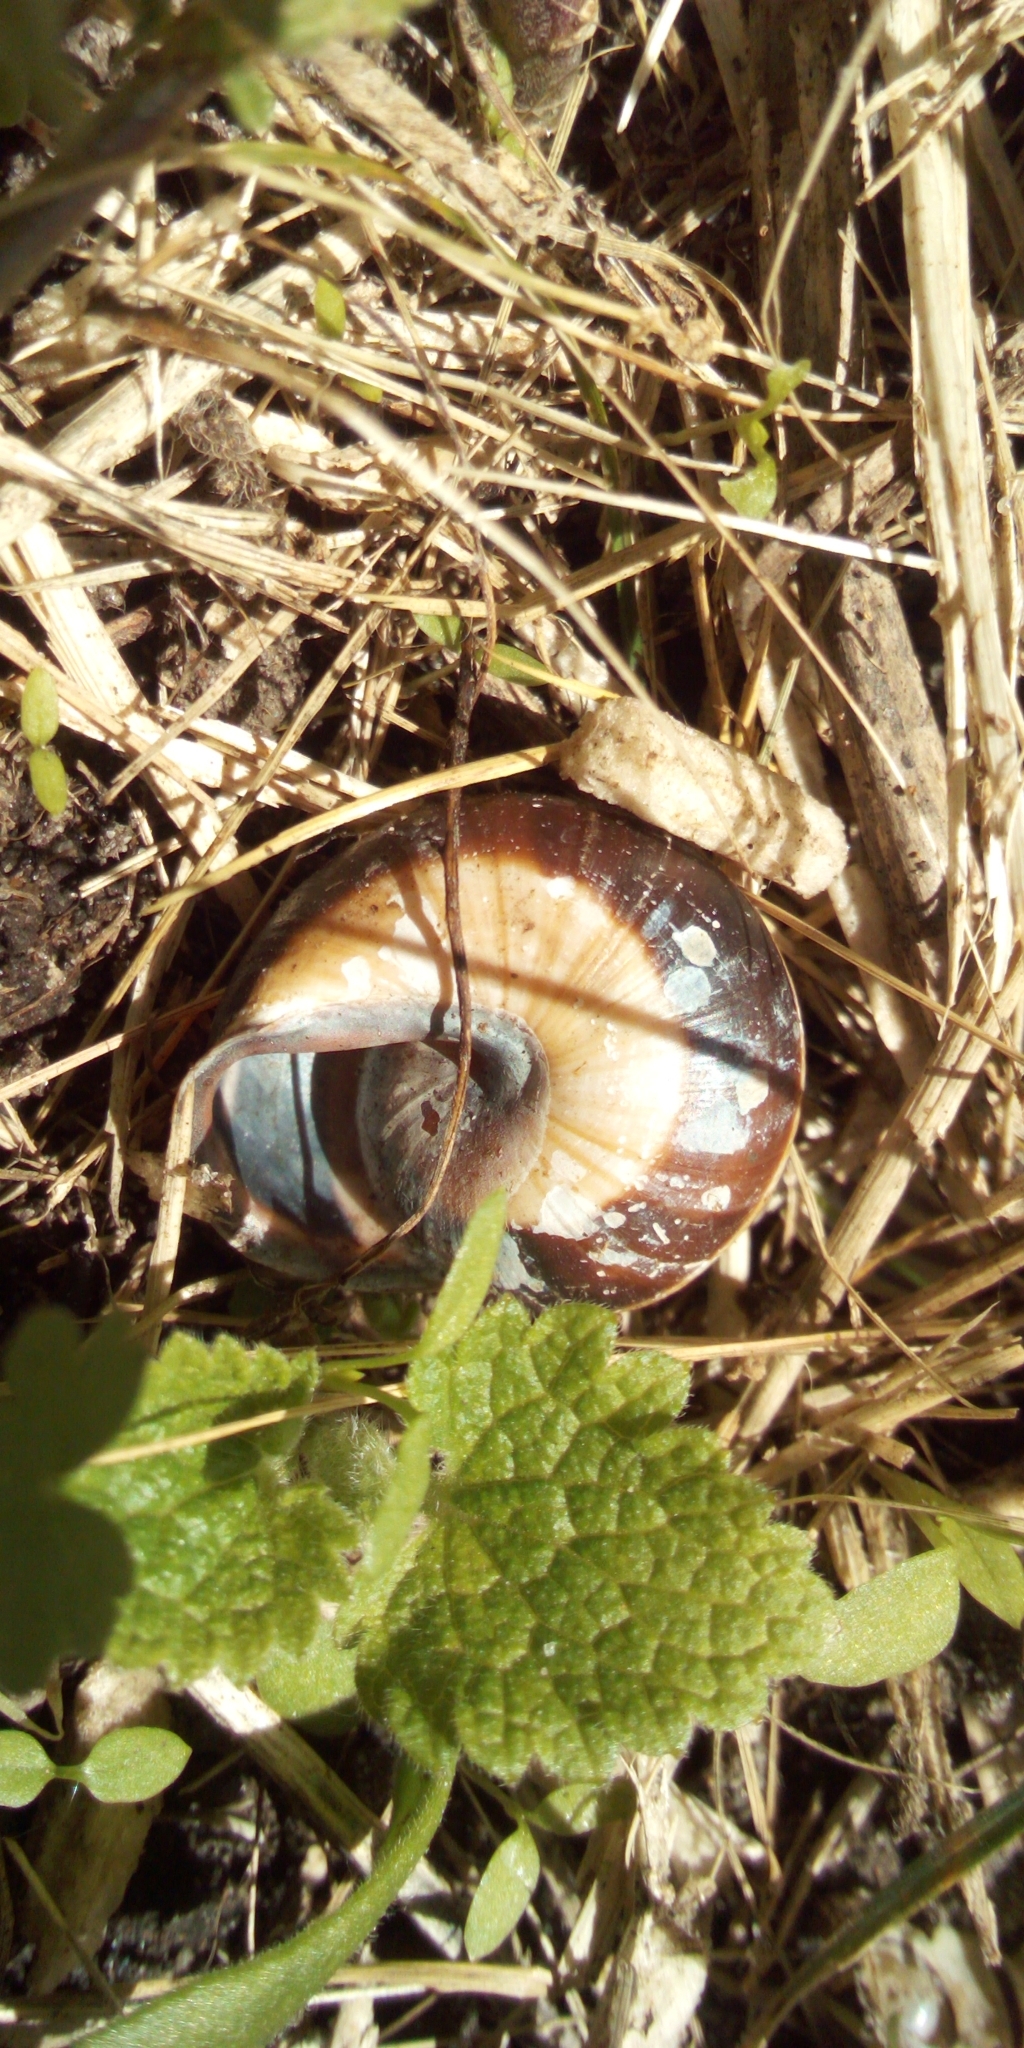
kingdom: Animalia
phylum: Mollusca
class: Gastropoda
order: Stylommatophora
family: Helicidae
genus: Cepaea
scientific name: Cepaea nemoralis
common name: Grovesnail
